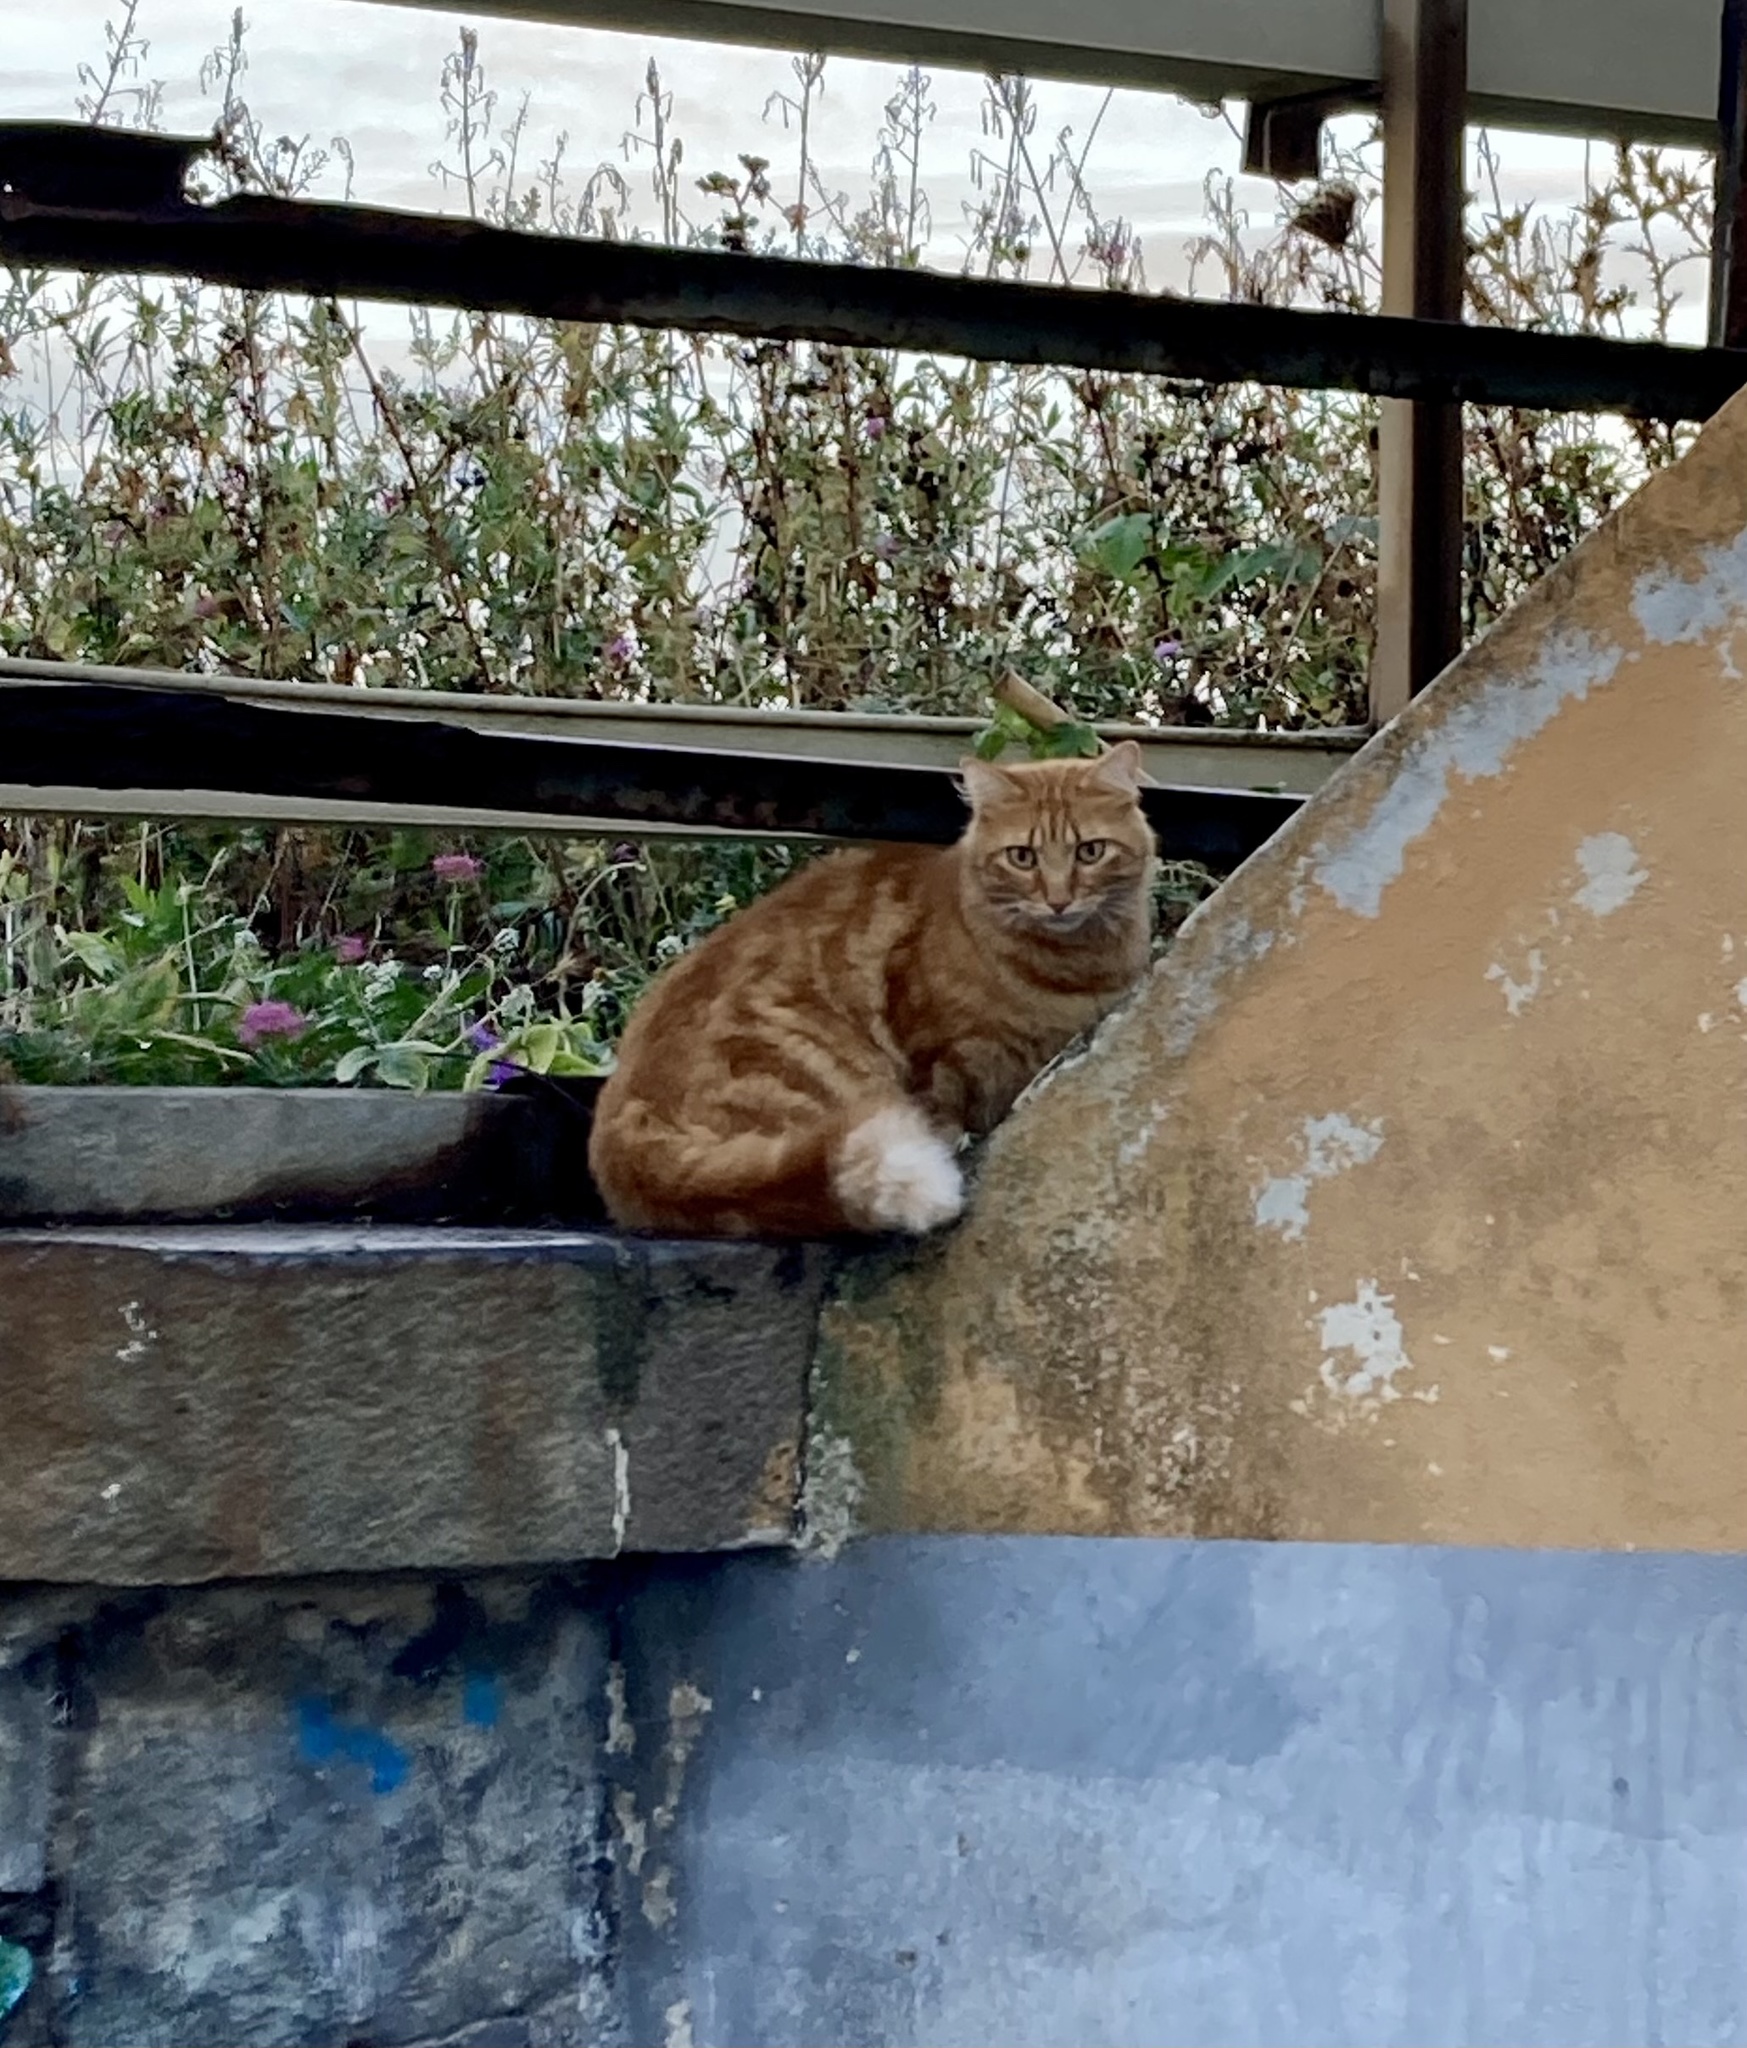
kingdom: Animalia
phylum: Chordata
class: Mammalia
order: Carnivora
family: Felidae
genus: Felis
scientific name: Felis catus
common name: Domestic cat
